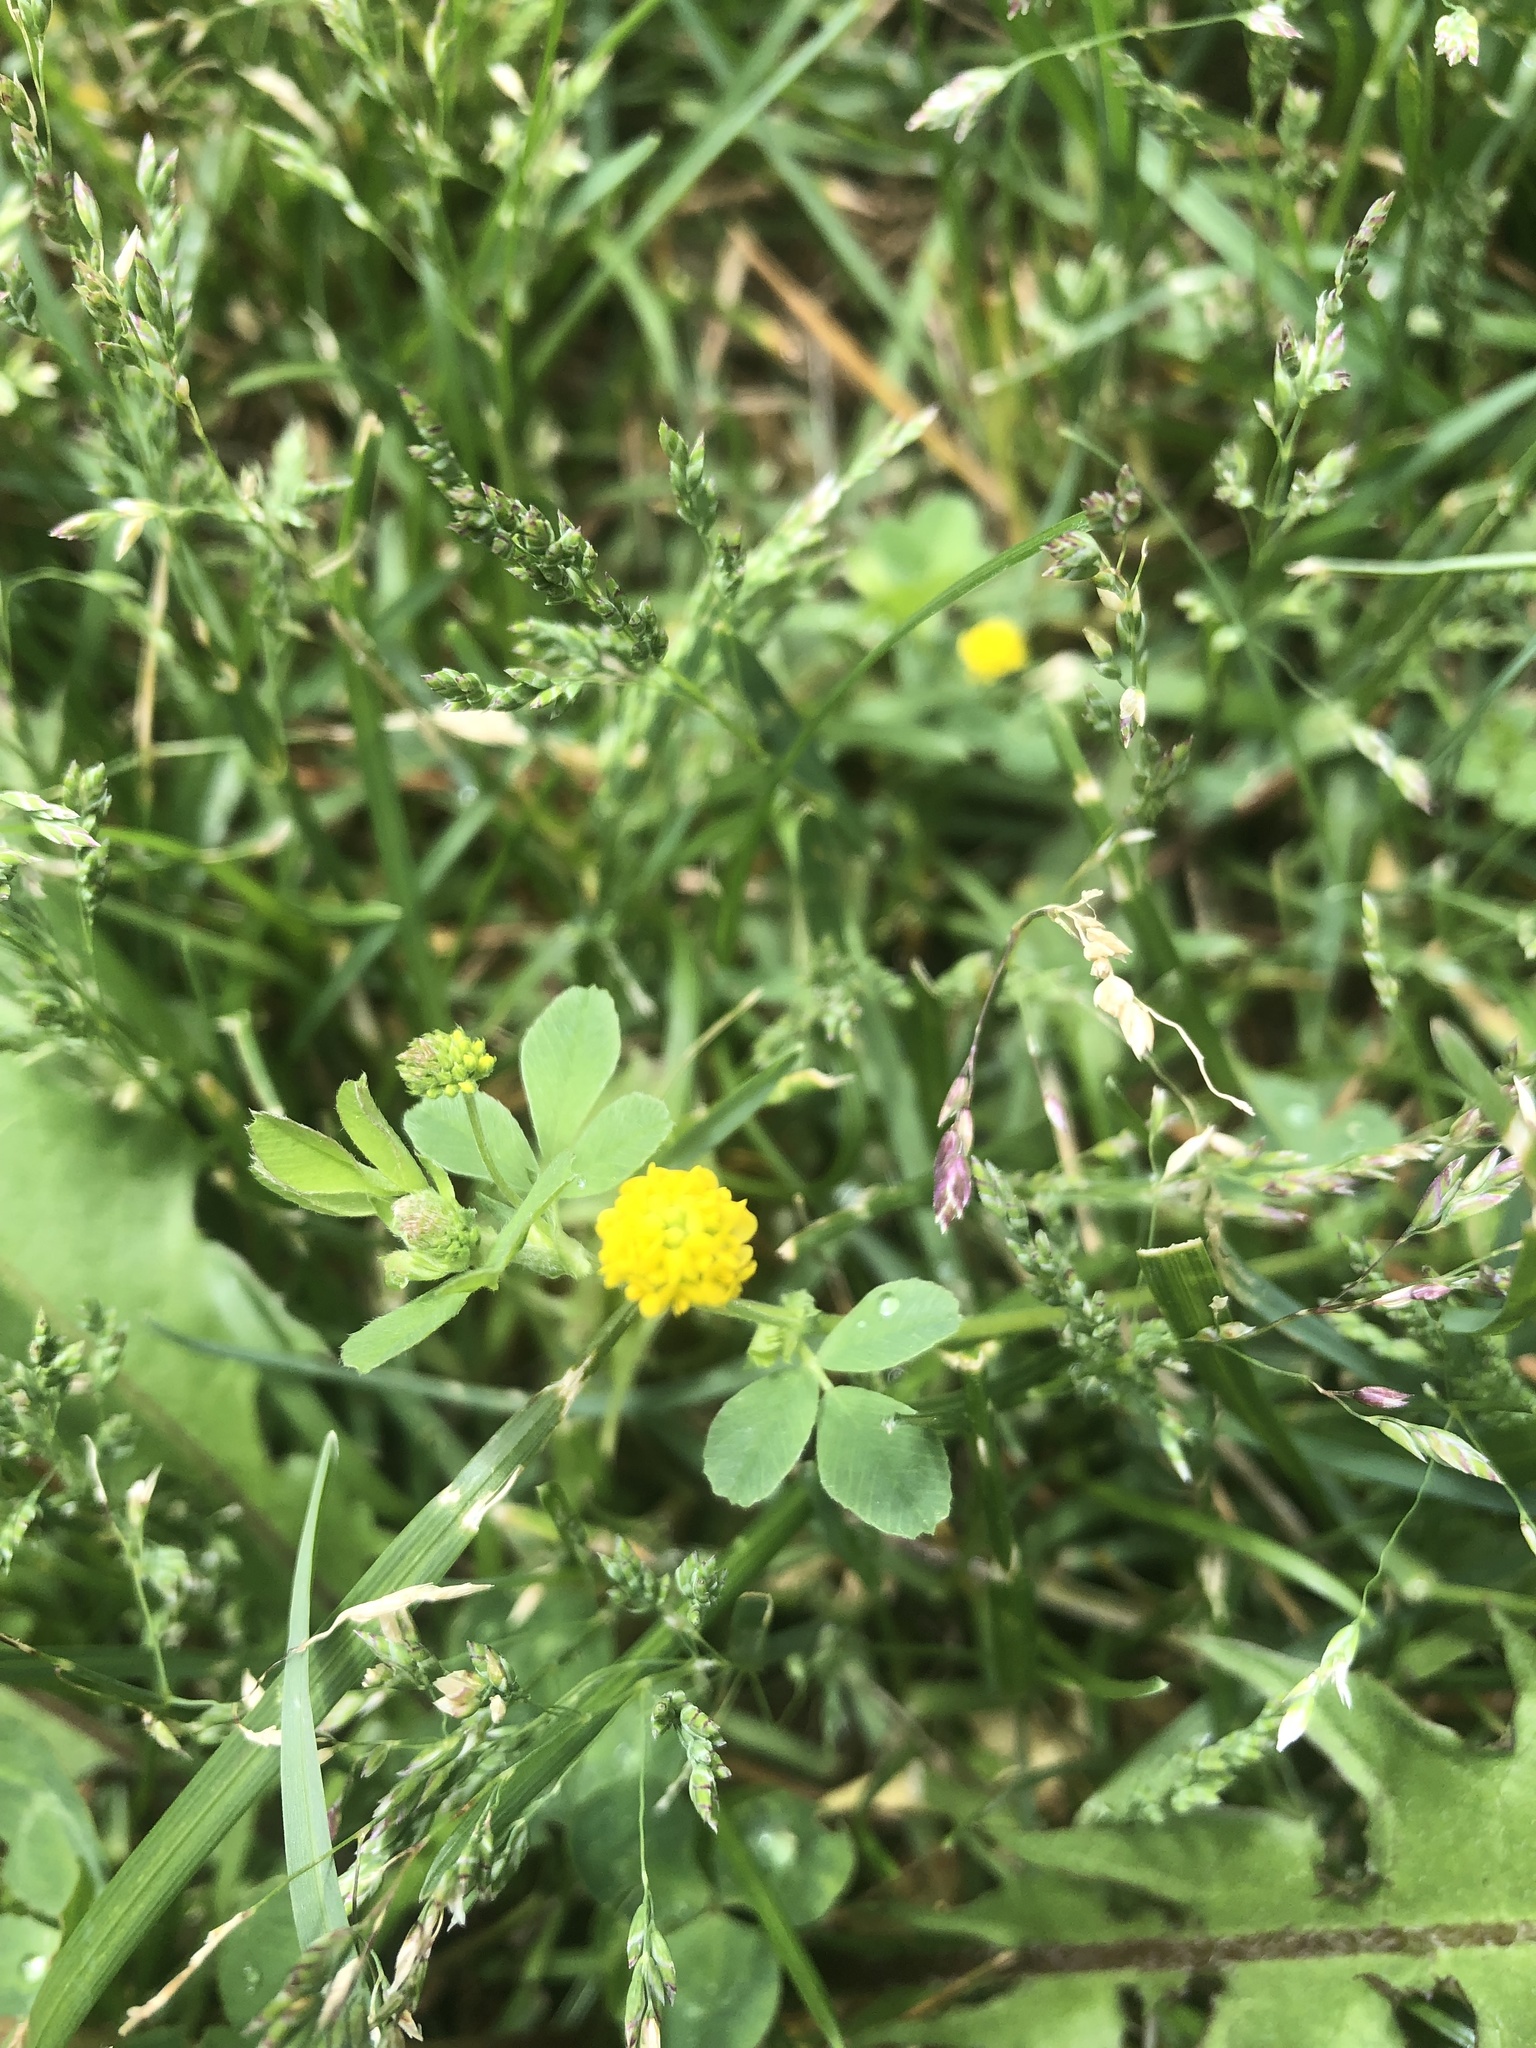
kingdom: Plantae
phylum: Tracheophyta
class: Magnoliopsida
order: Fabales
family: Fabaceae
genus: Medicago
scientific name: Medicago lupulina
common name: Black medick
